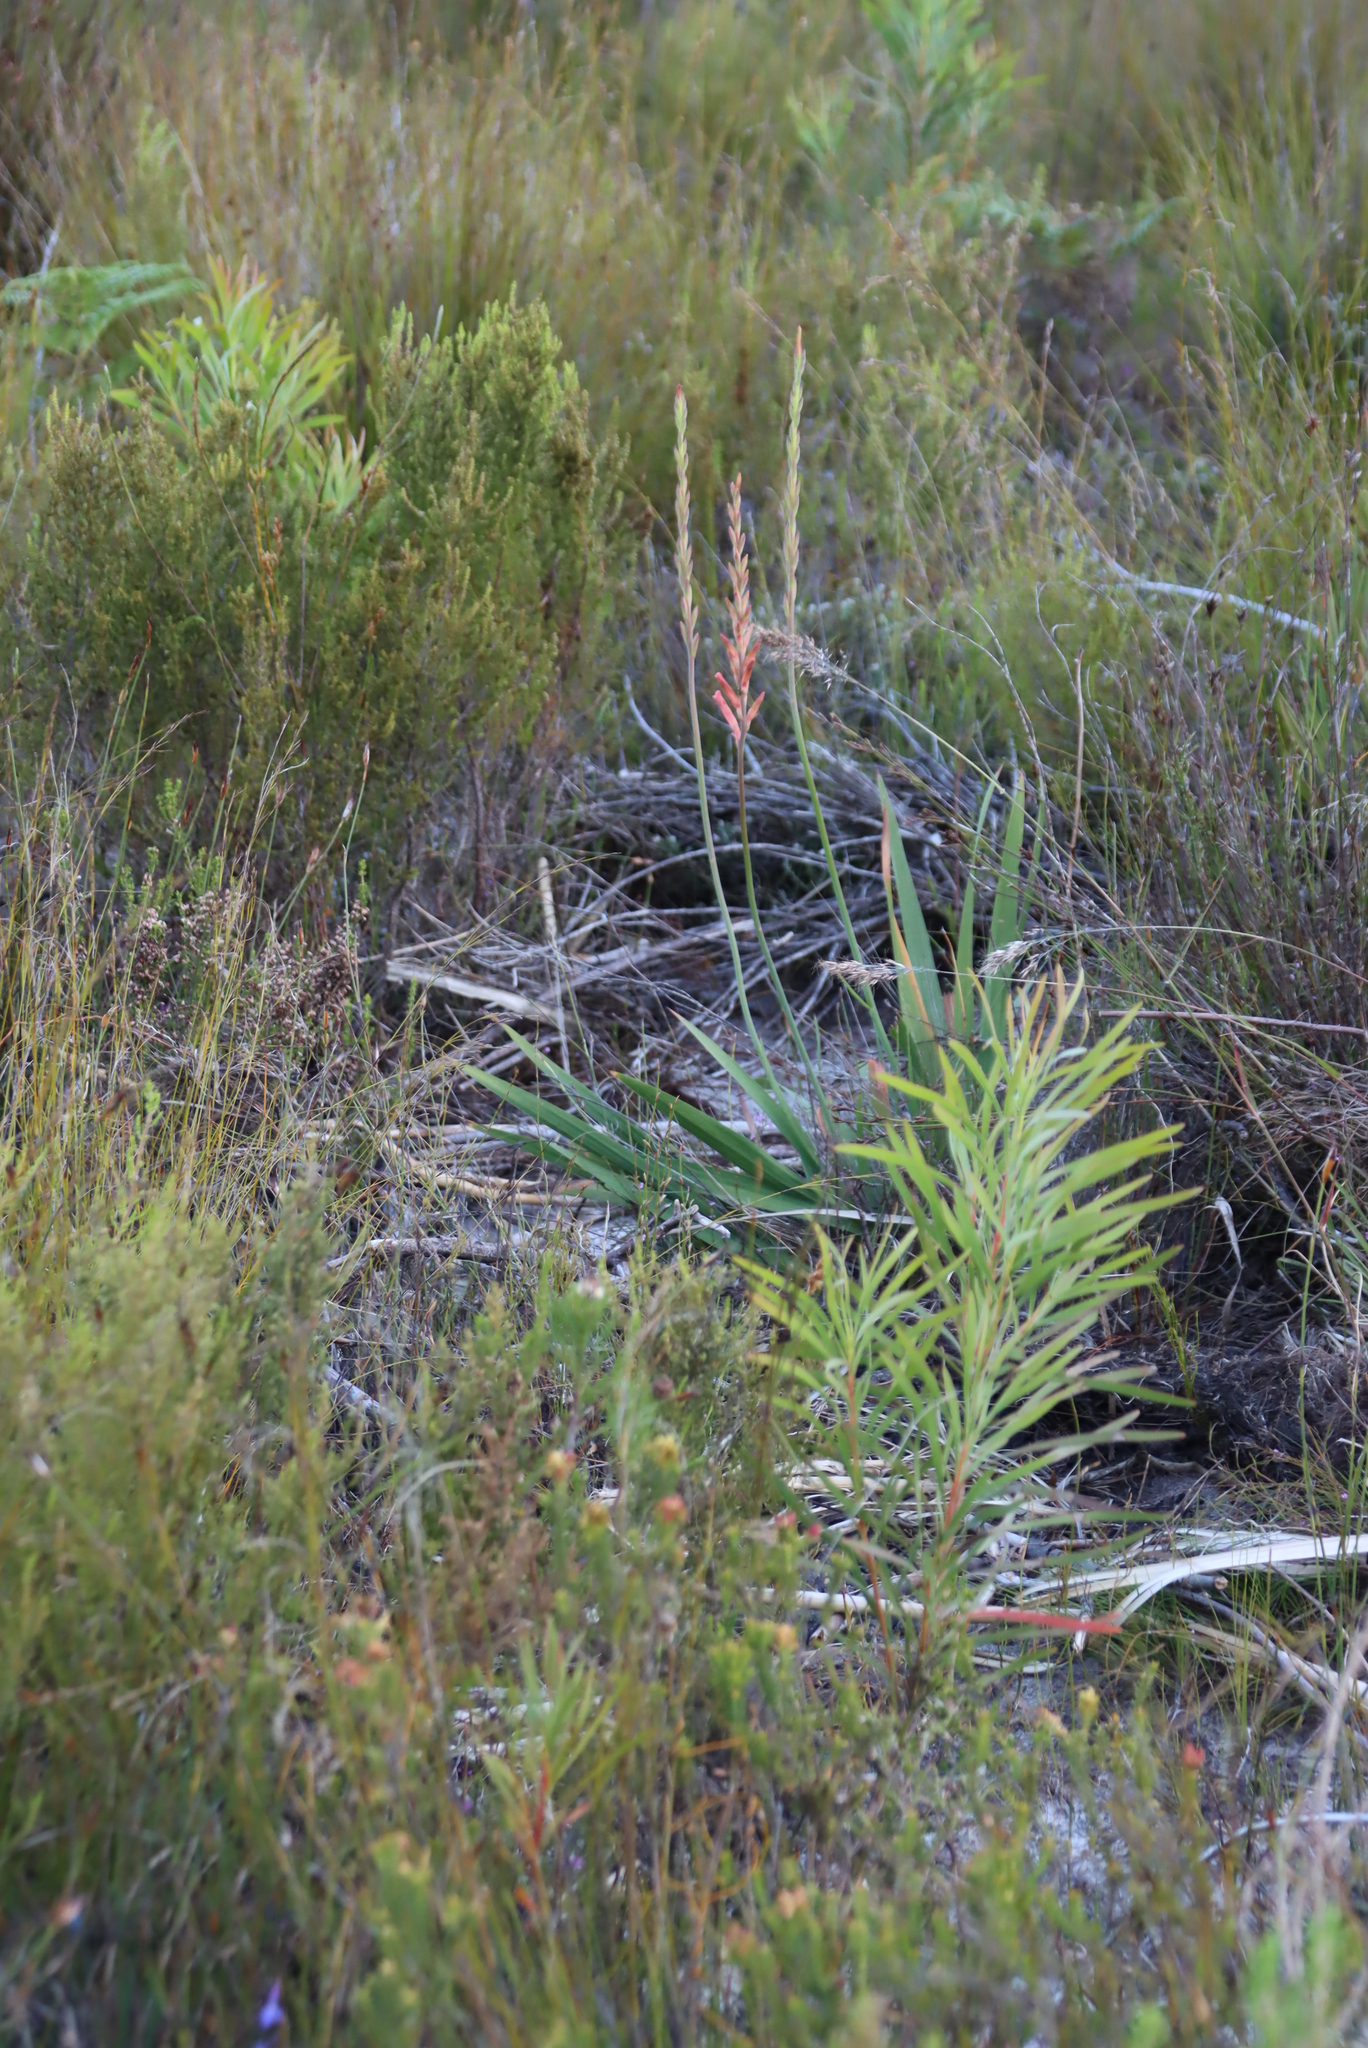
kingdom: Plantae
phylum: Tracheophyta
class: Liliopsida
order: Asparagales
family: Iridaceae
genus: Tritoniopsis
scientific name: Tritoniopsis antholyza
